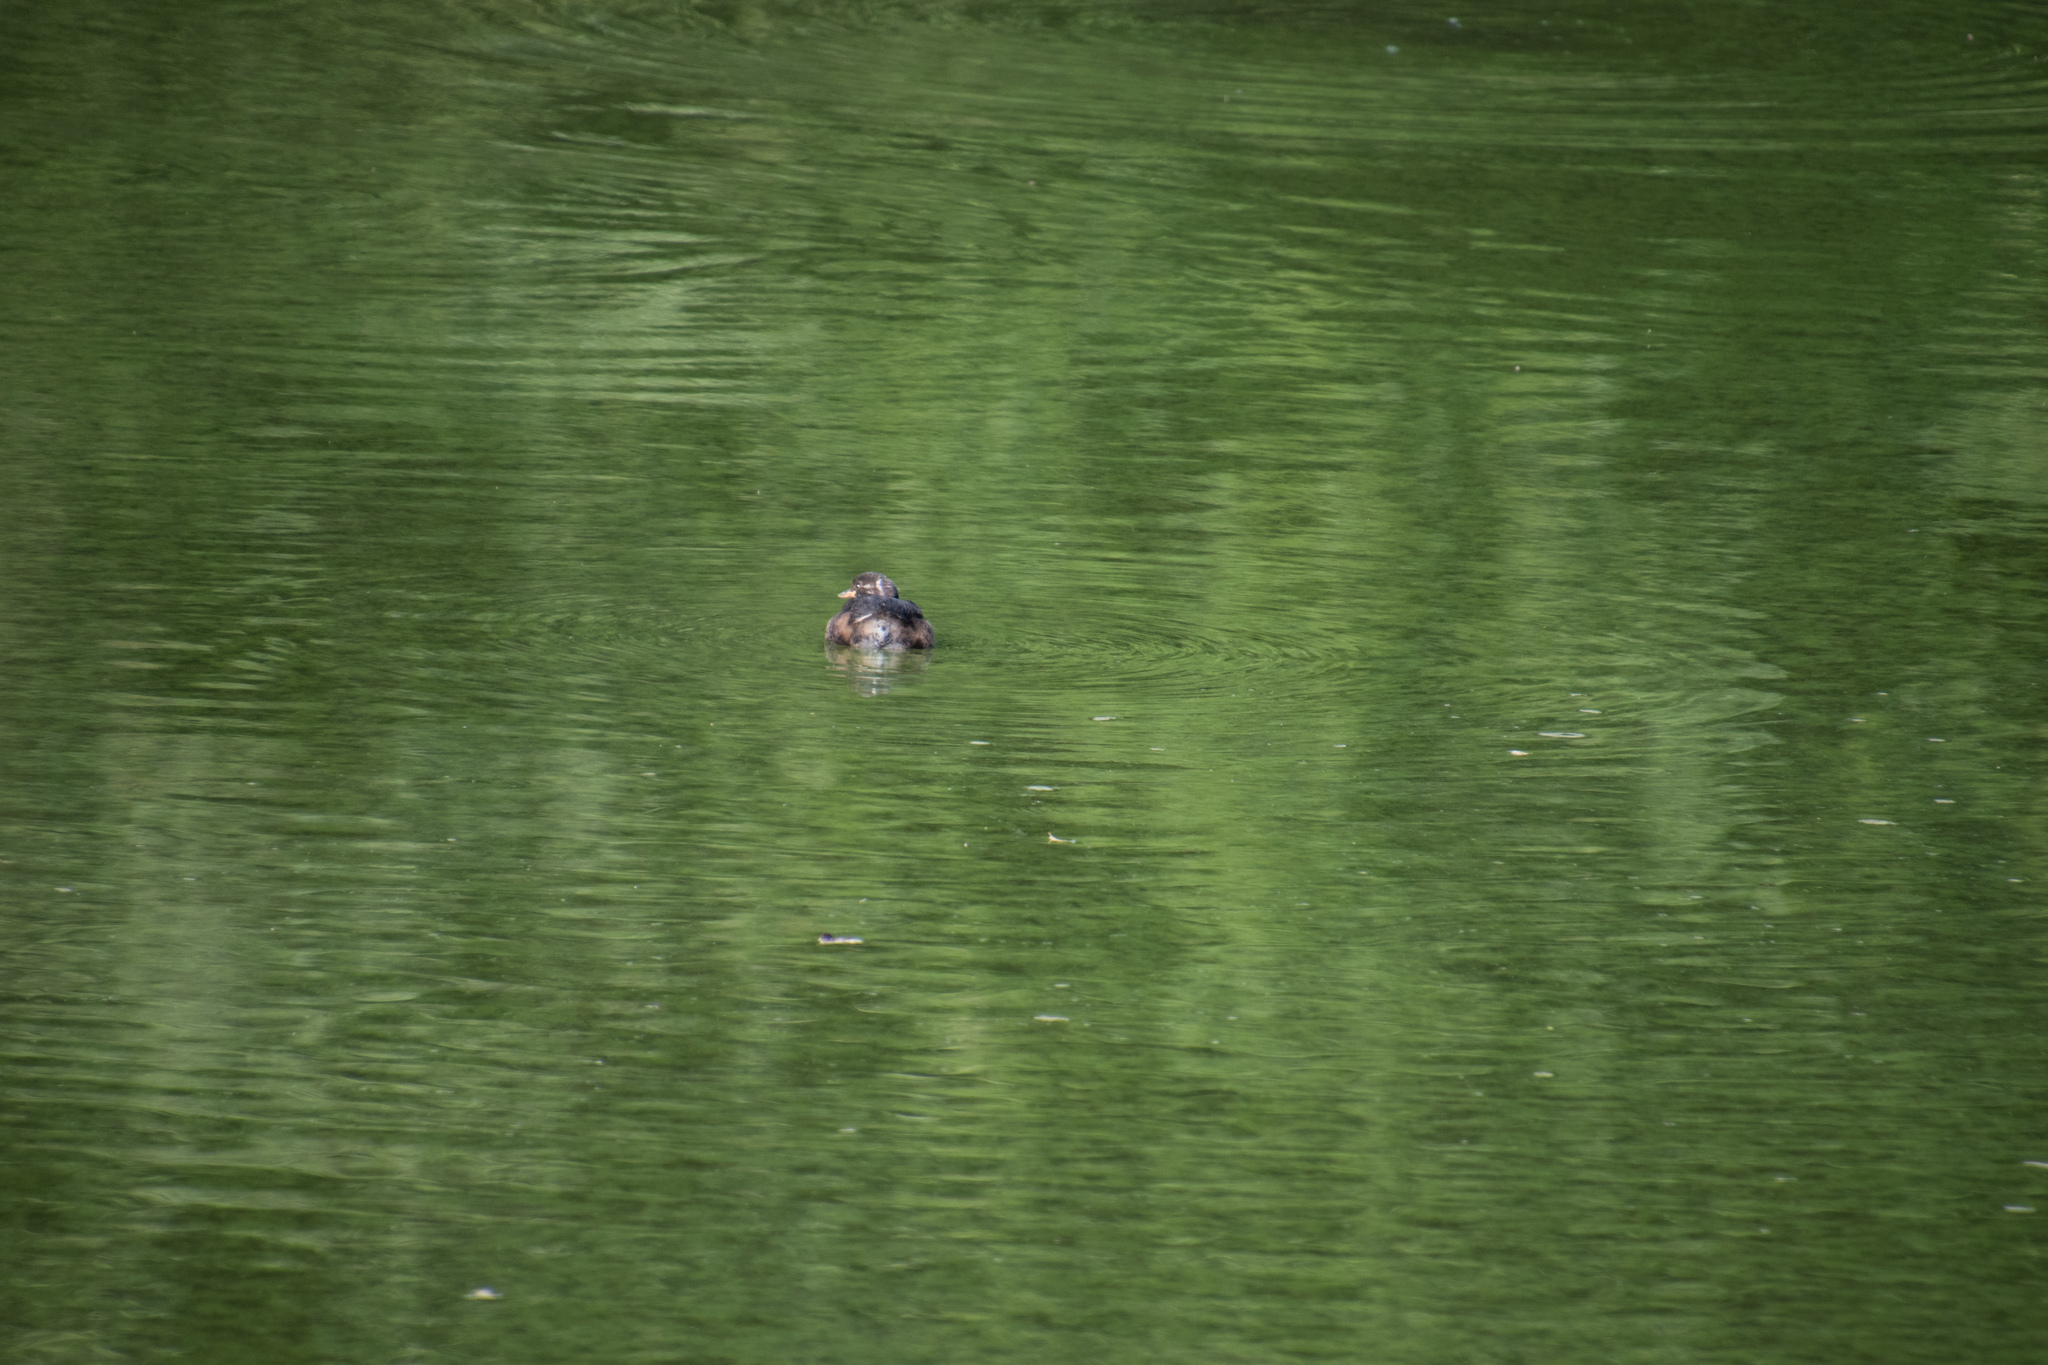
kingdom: Animalia
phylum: Chordata
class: Aves
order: Podicipediformes
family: Podicipedidae
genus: Tachybaptus
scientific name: Tachybaptus ruficollis
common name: Little grebe
